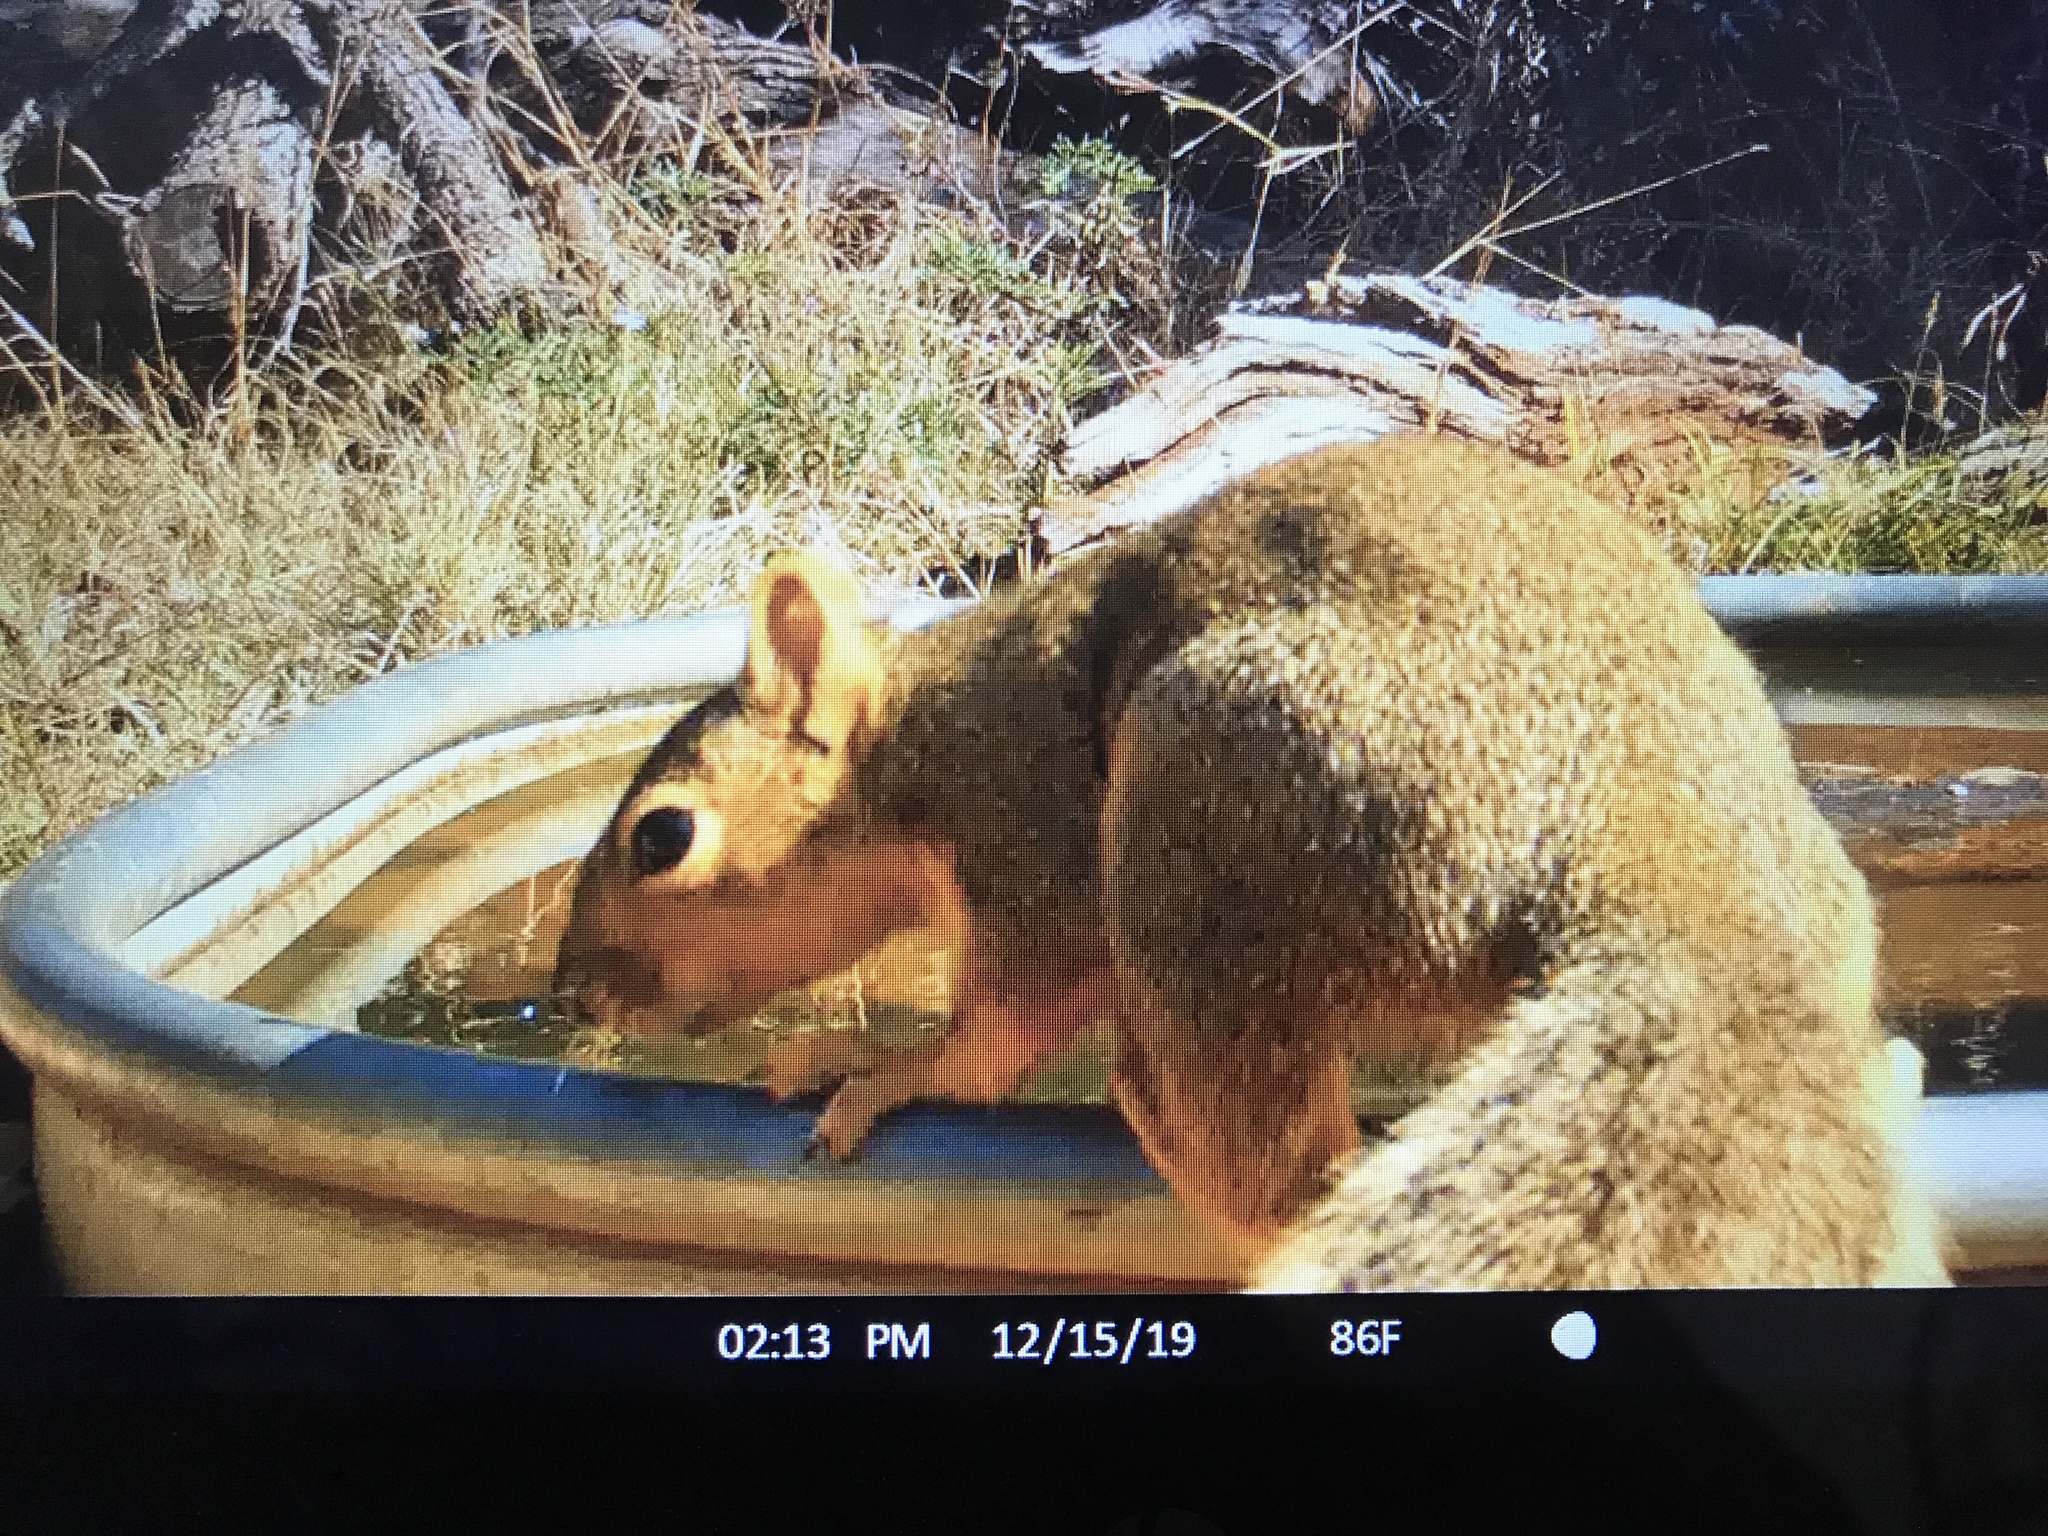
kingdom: Animalia
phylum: Chordata
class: Mammalia
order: Rodentia
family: Sciuridae
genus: Sciurus
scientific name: Sciurus niger
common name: Fox squirrel
